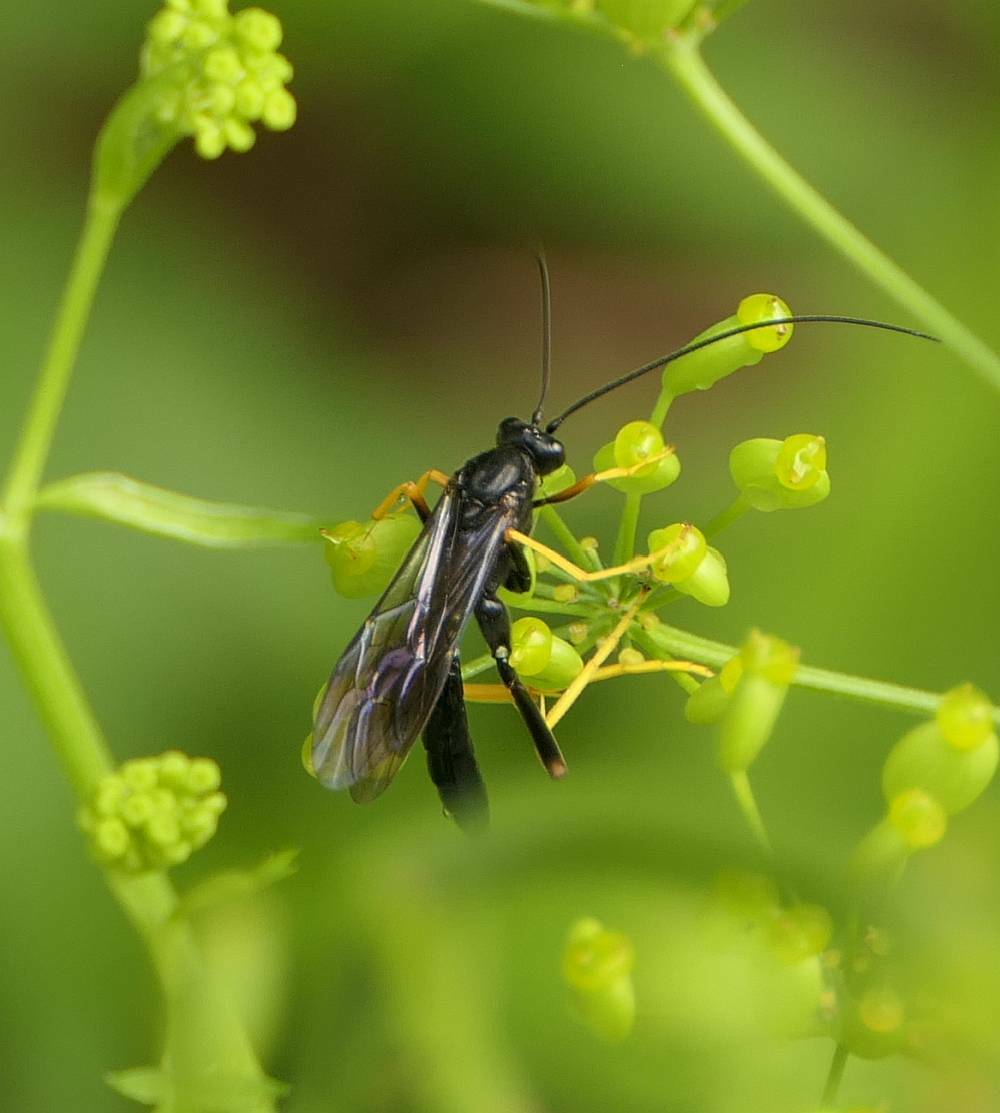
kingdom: Animalia
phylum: Arthropoda
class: Insecta
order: Hymenoptera
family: Ichneumonidae
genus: Exetastes
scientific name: Exetastes suaveolens
